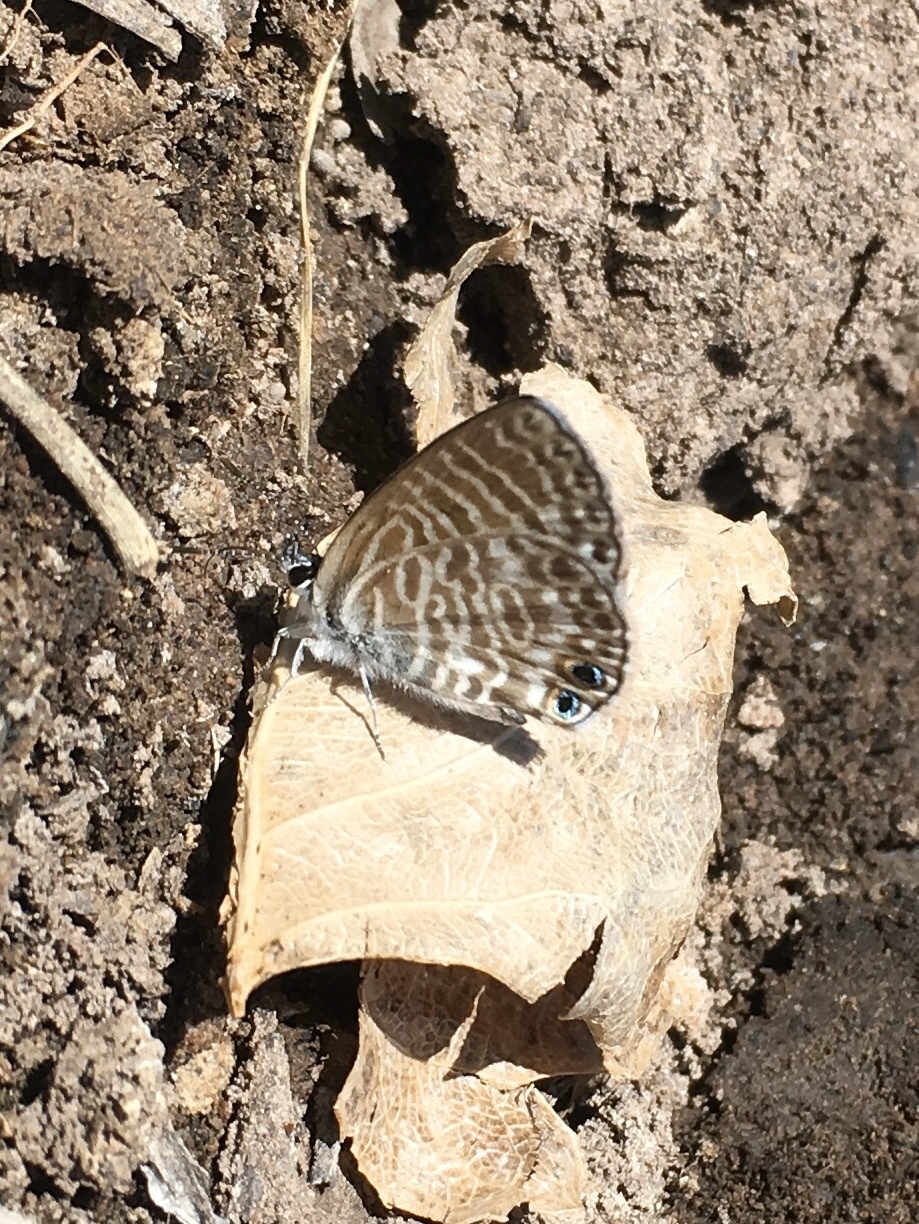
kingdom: Animalia
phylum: Arthropoda
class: Insecta
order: Lepidoptera
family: Lycaenidae
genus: Leptotes
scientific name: Leptotes marina
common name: Marine blue
